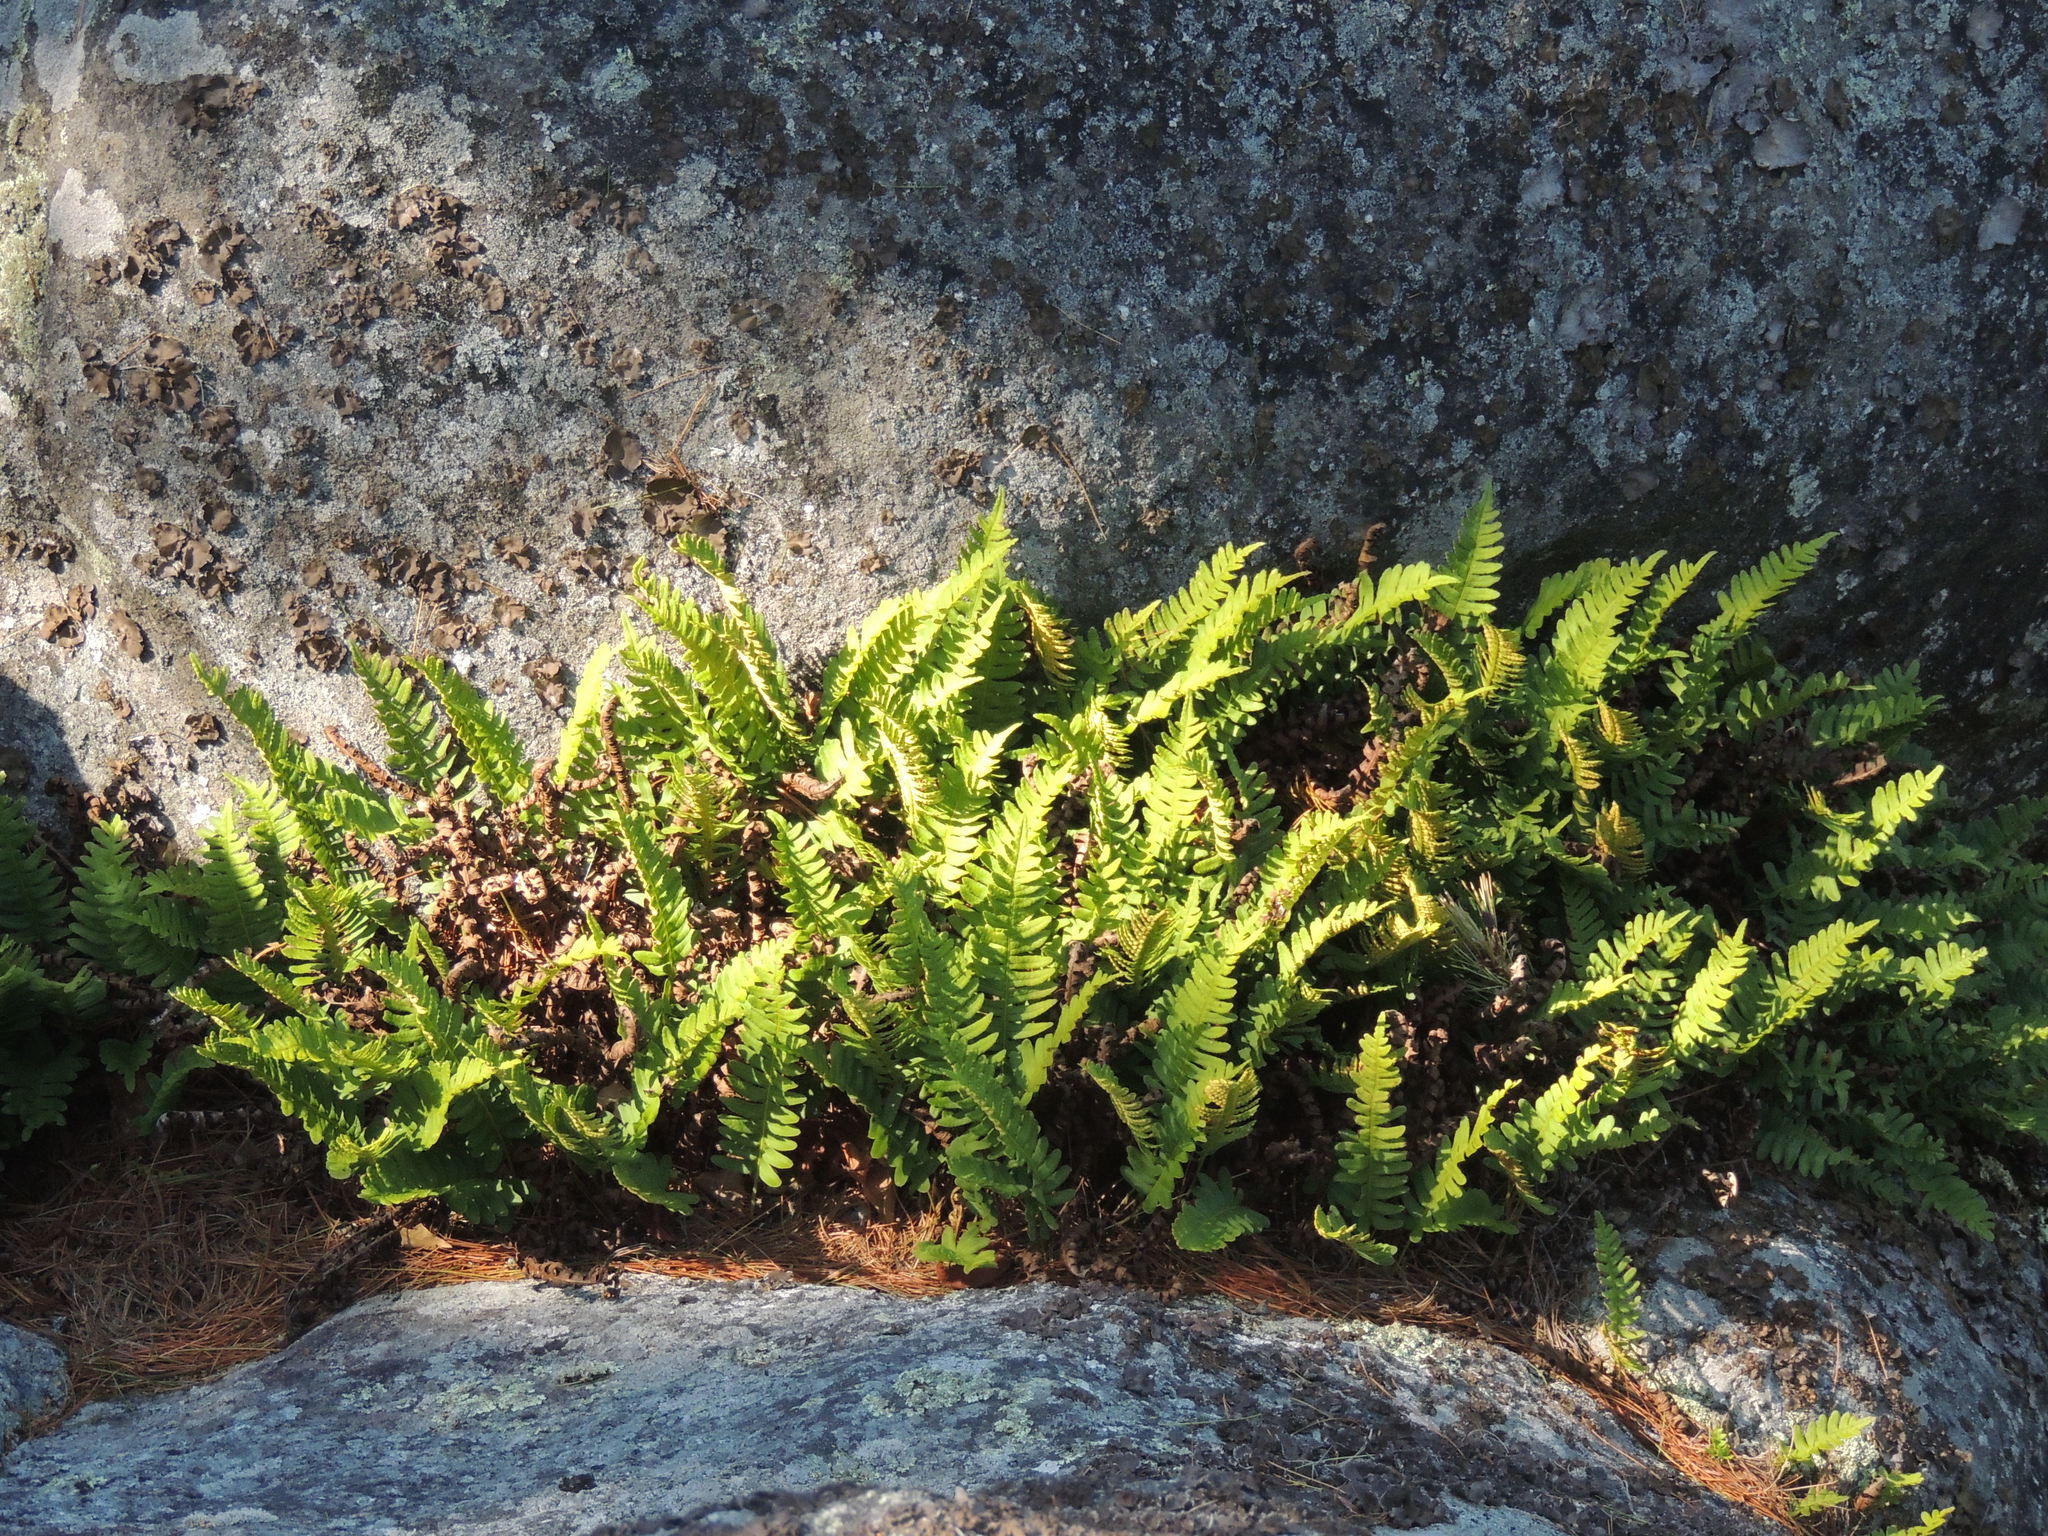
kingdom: Plantae
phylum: Tracheophyta
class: Polypodiopsida
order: Polypodiales
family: Polypodiaceae
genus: Polypodium
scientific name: Polypodium virginianum
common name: American wall fern
